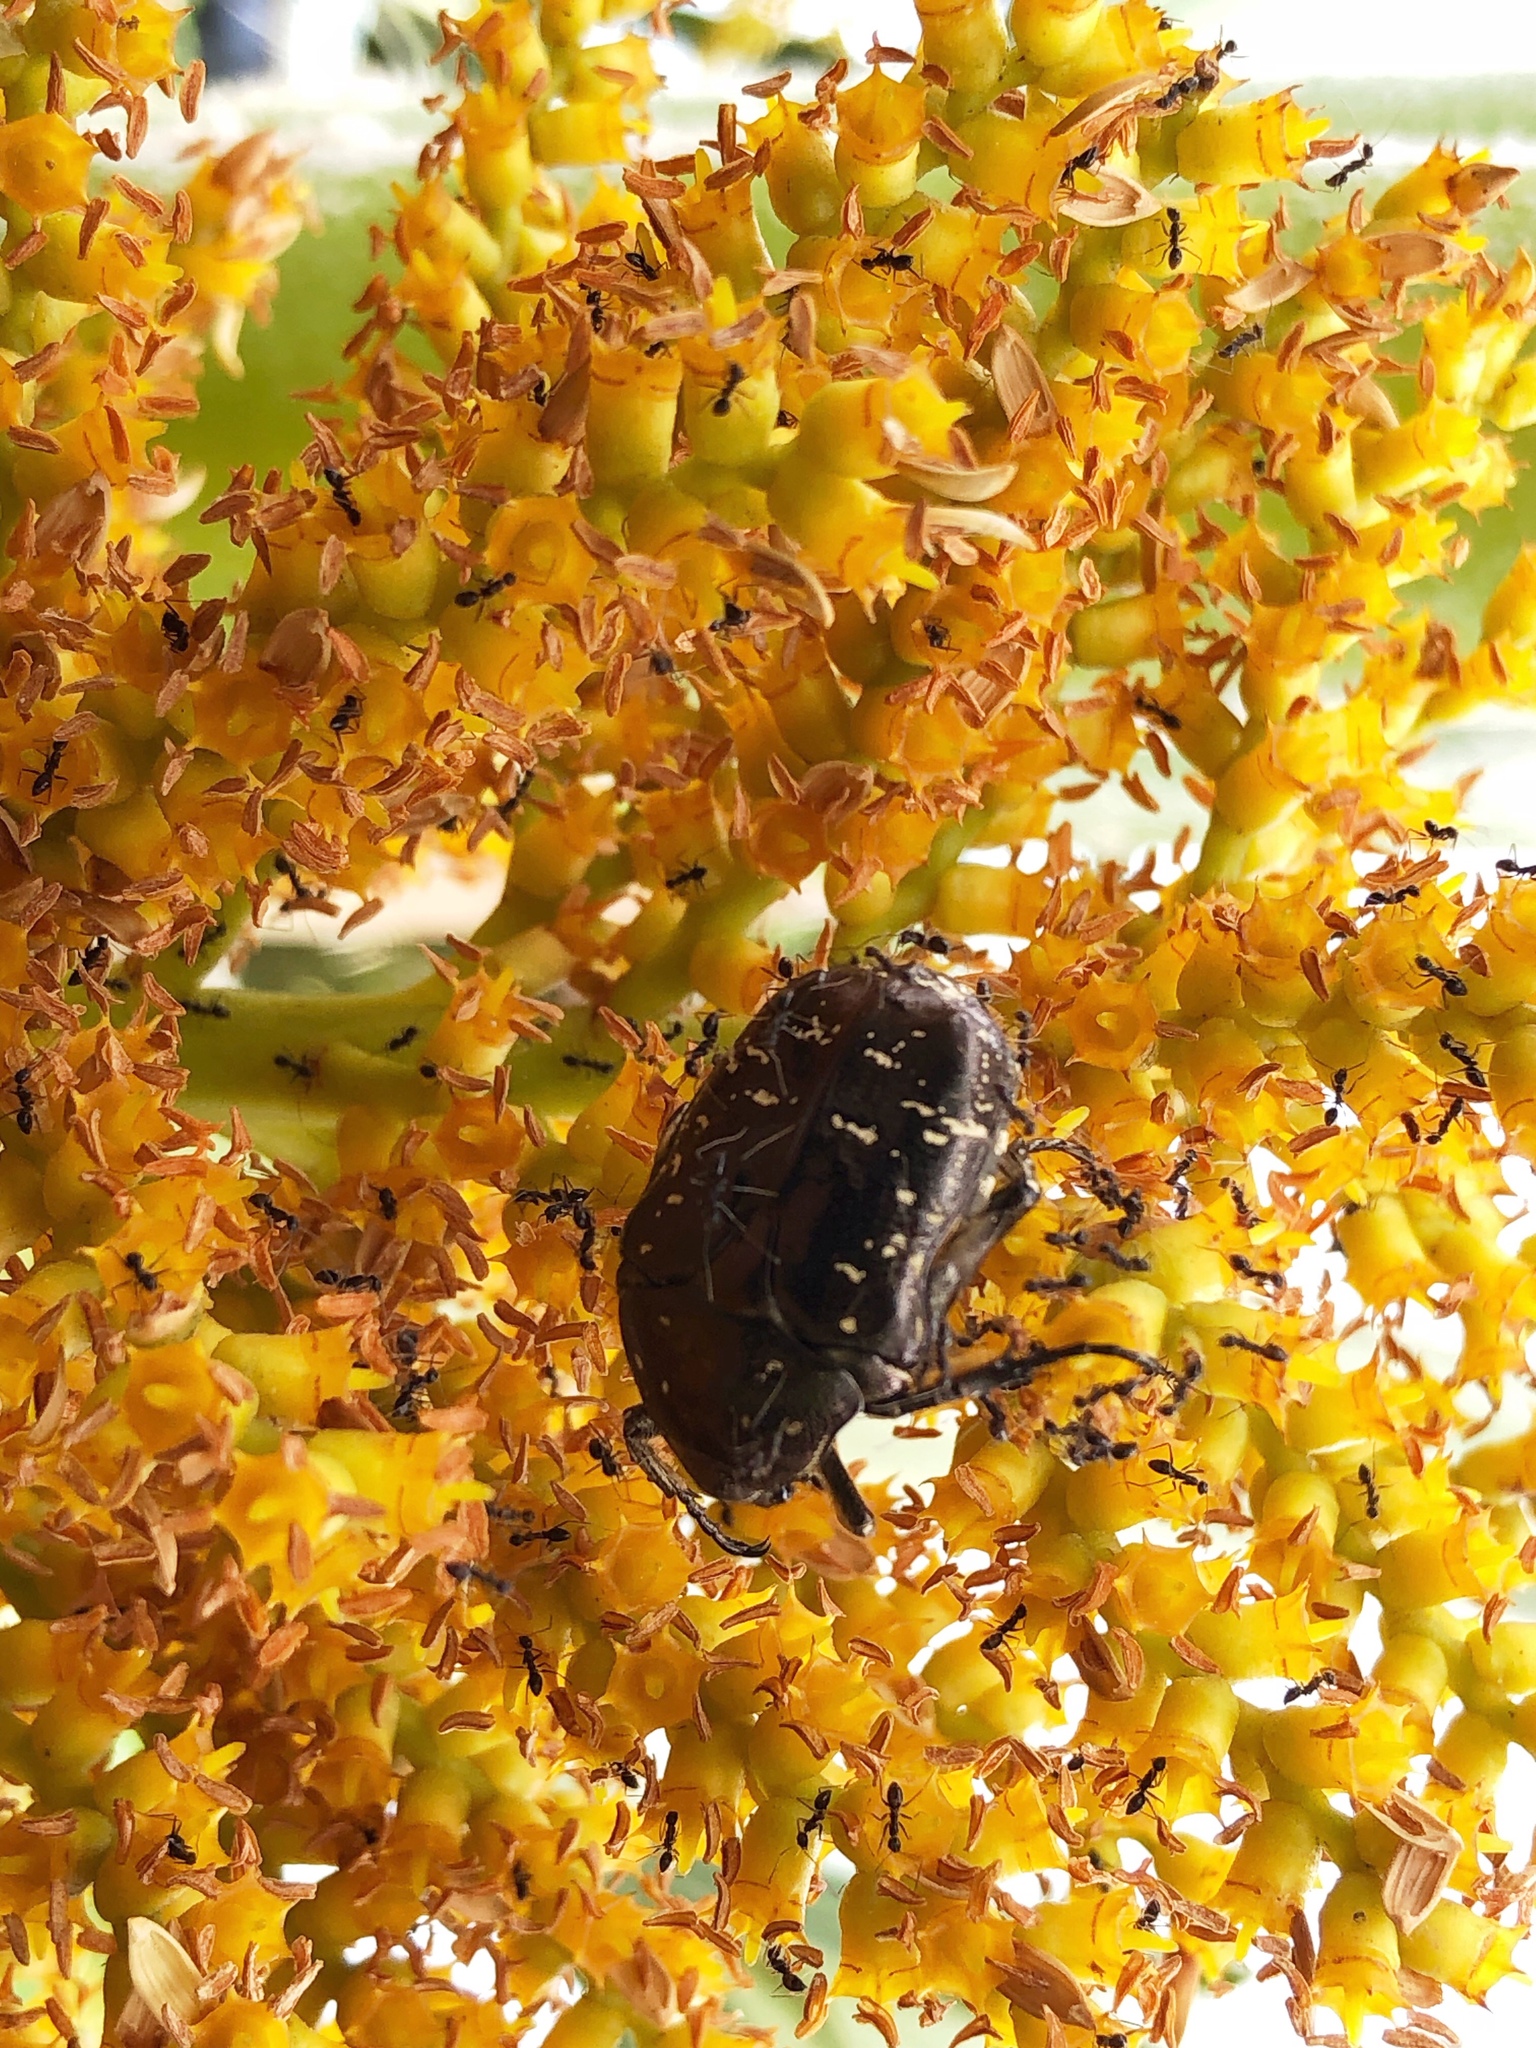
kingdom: Animalia
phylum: Arthropoda
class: Insecta
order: Coleoptera
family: Scarabaeidae
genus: Protaetia
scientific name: Protaetia orientalis
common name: Oriental flower beetle
